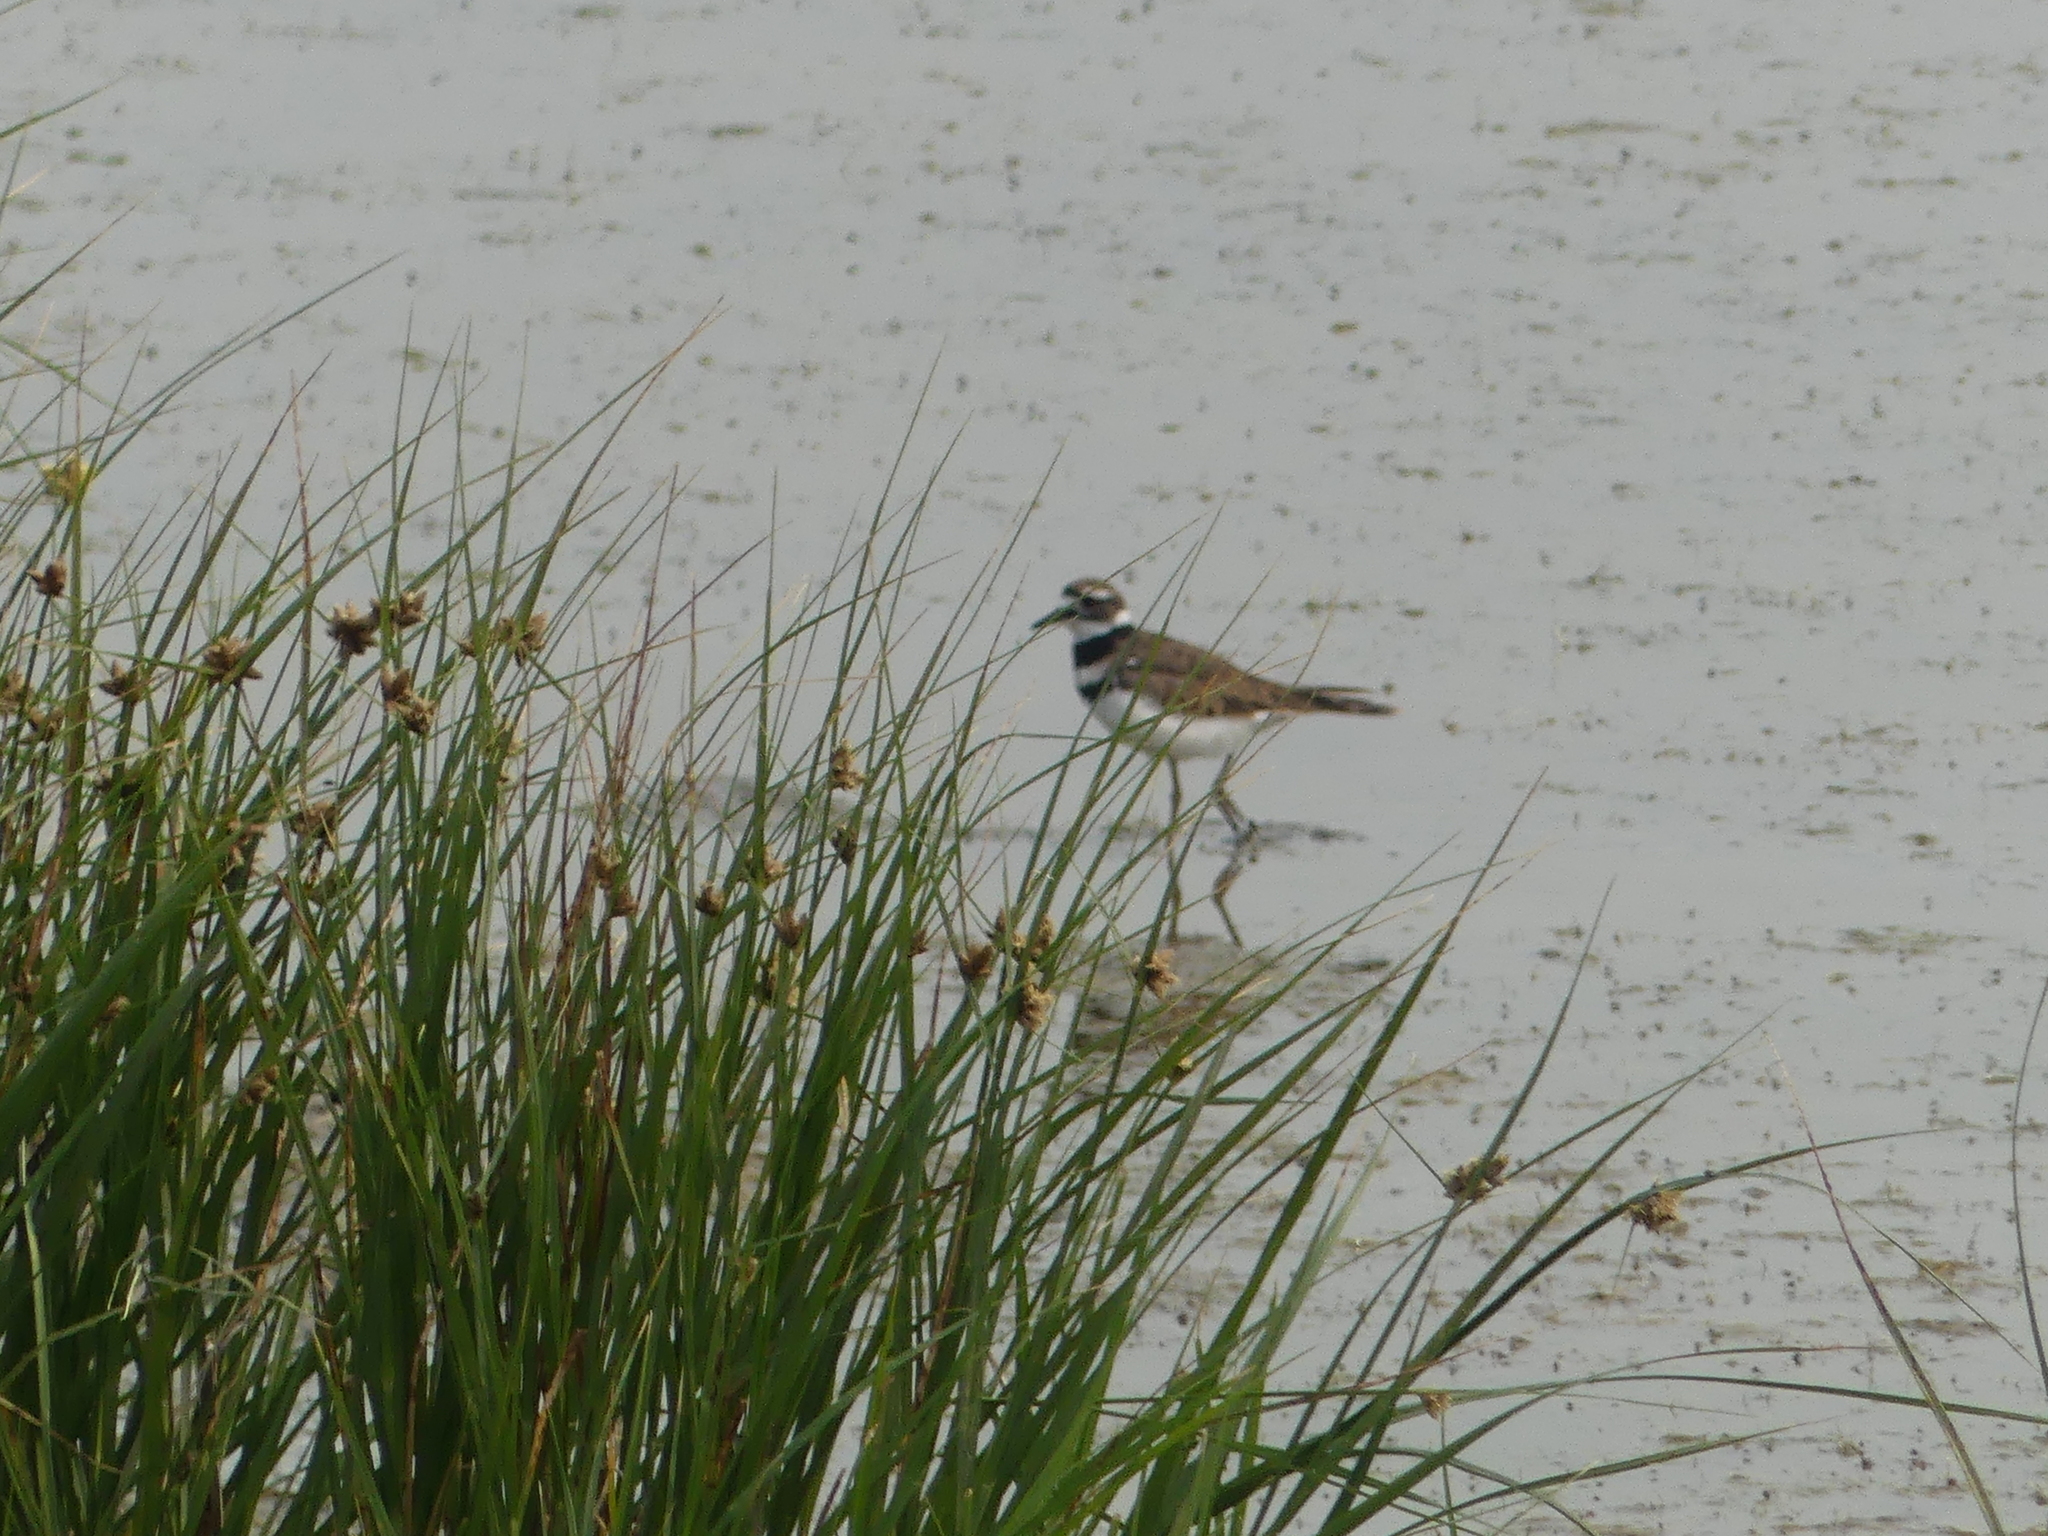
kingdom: Animalia
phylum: Chordata
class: Aves
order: Charadriiformes
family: Charadriidae
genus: Charadrius
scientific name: Charadrius vociferus
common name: Killdeer
